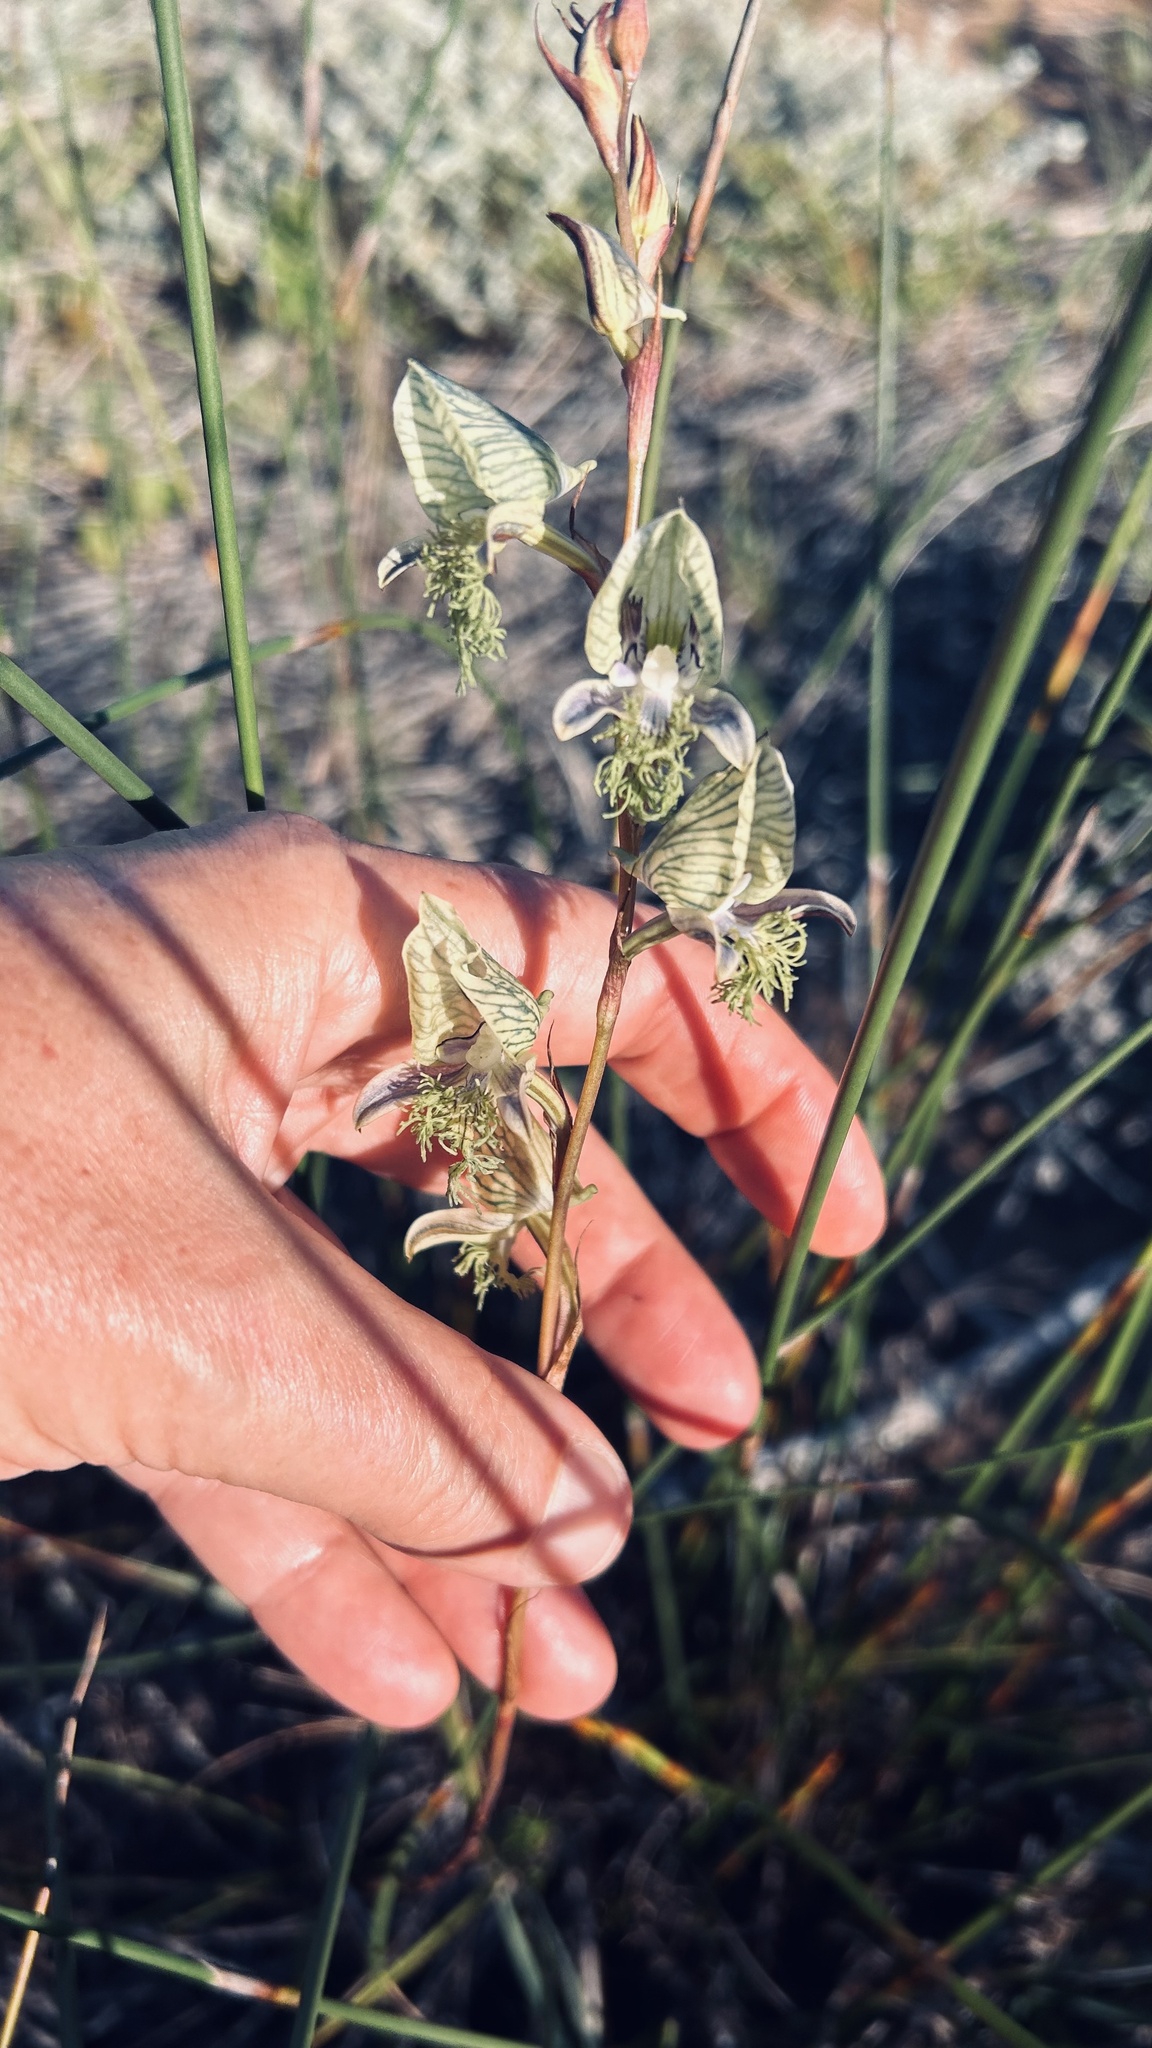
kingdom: Plantae
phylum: Tracheophyta
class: Liliopsida
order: Asparagales
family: Orchidaceae
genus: Disa
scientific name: Disa lugens
